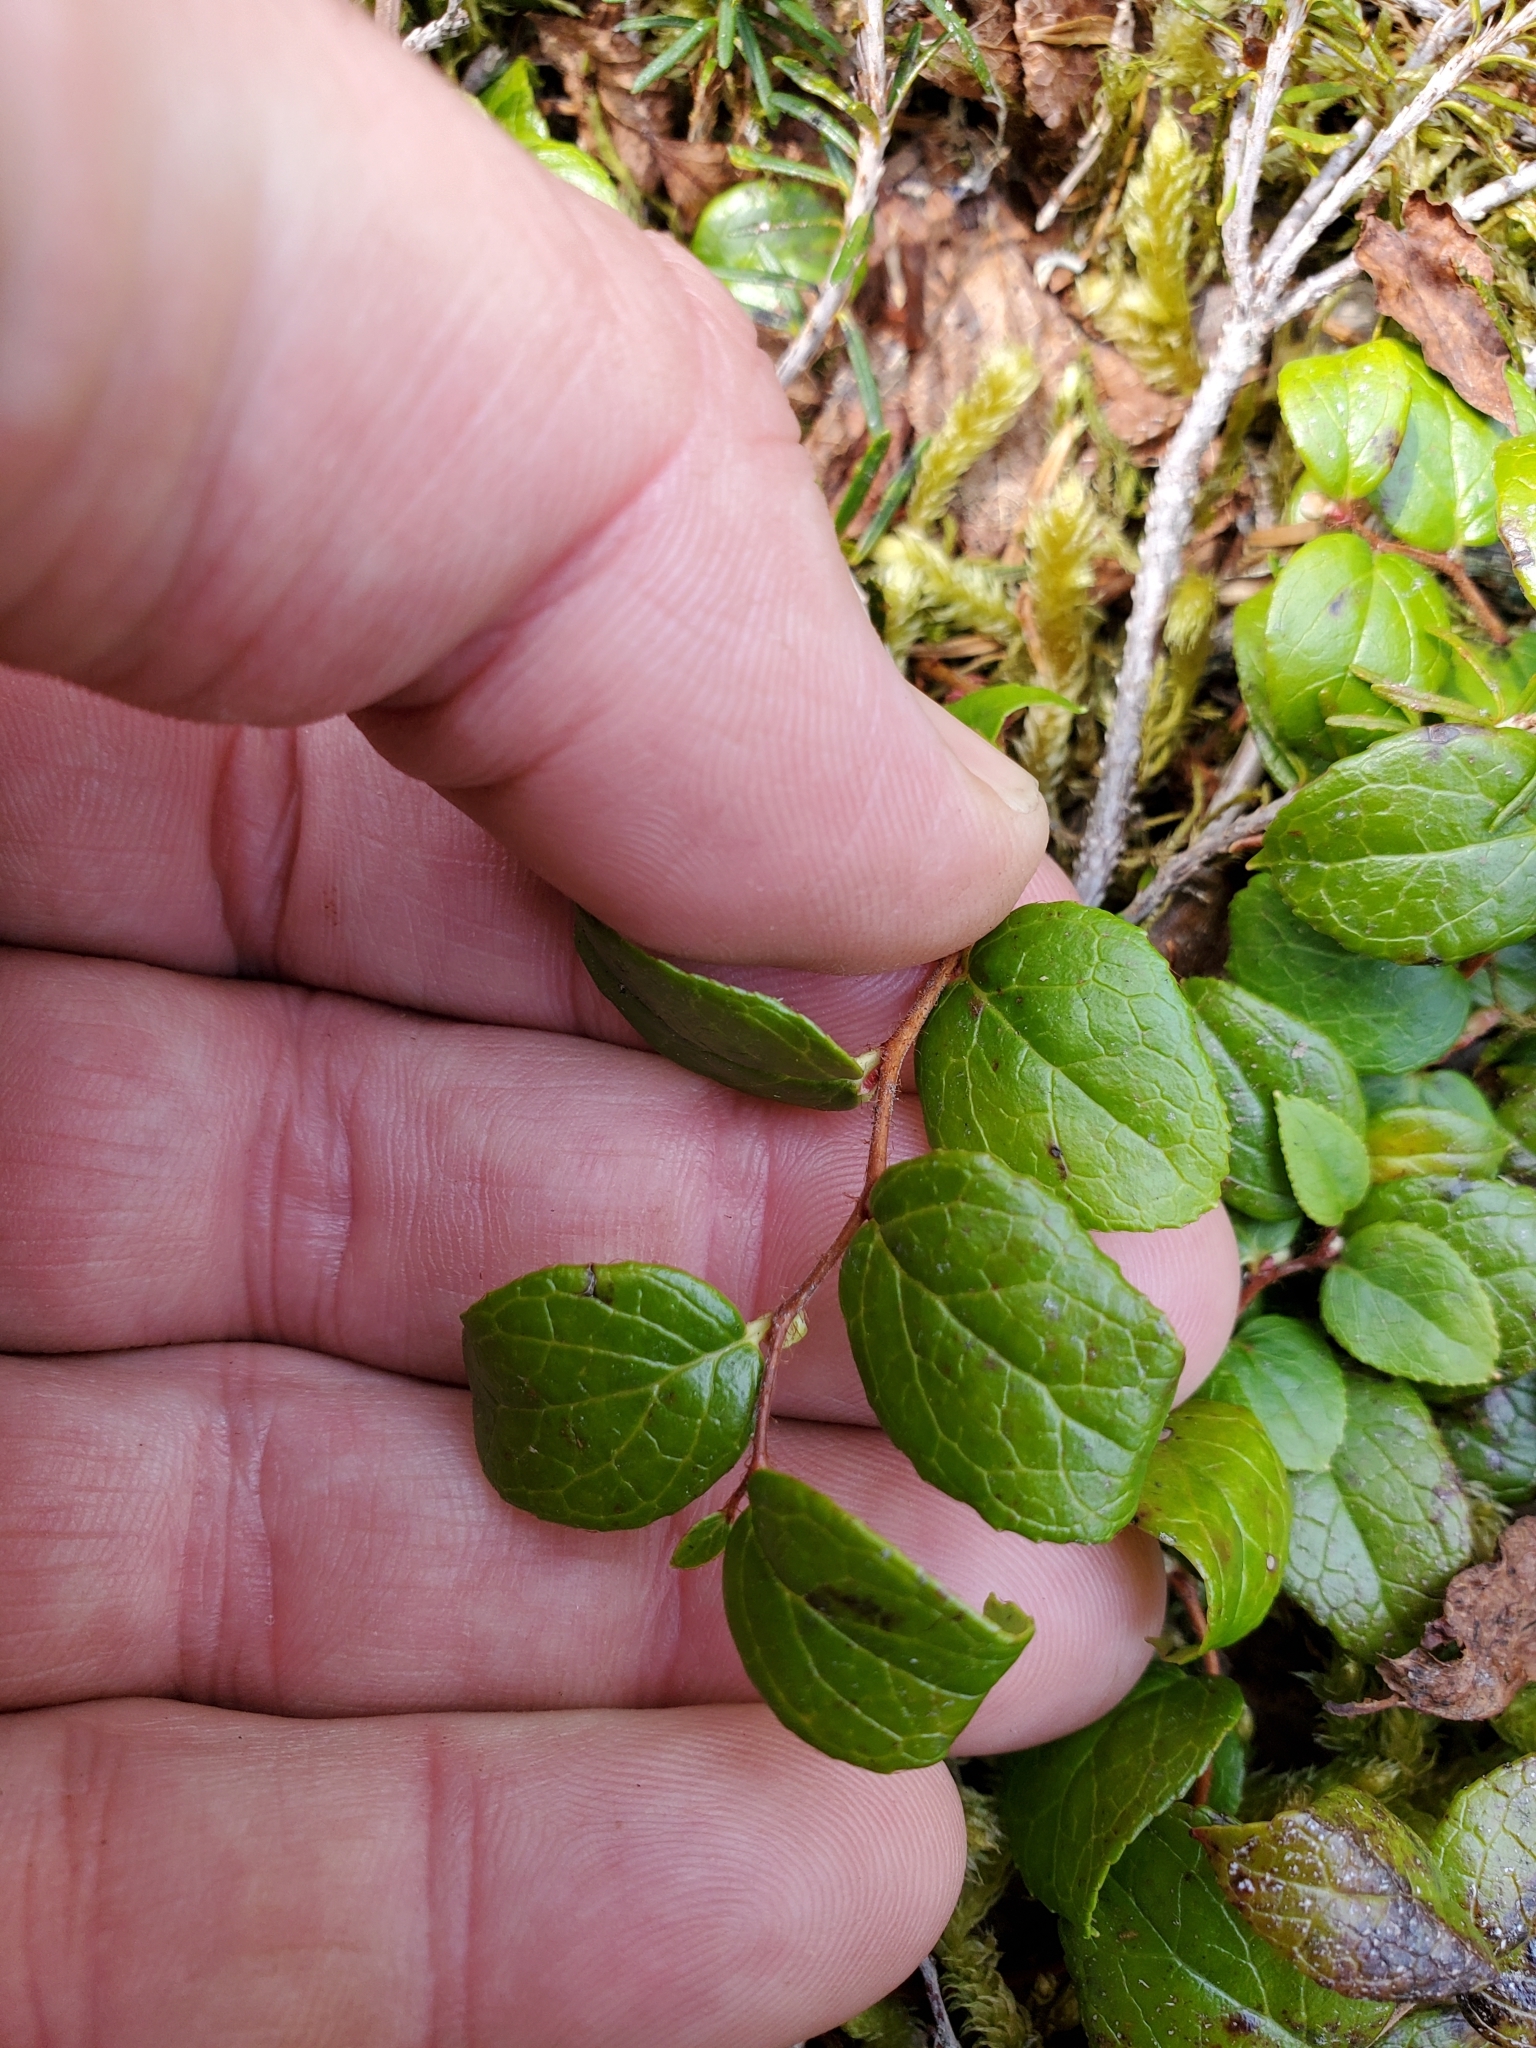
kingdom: Plantae
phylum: Tracheophyta
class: Magnoliopsida
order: Ericales
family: Ericaceae
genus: Gaultheria
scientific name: Gaultheria ovatifolia
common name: Oregon wintergreen
